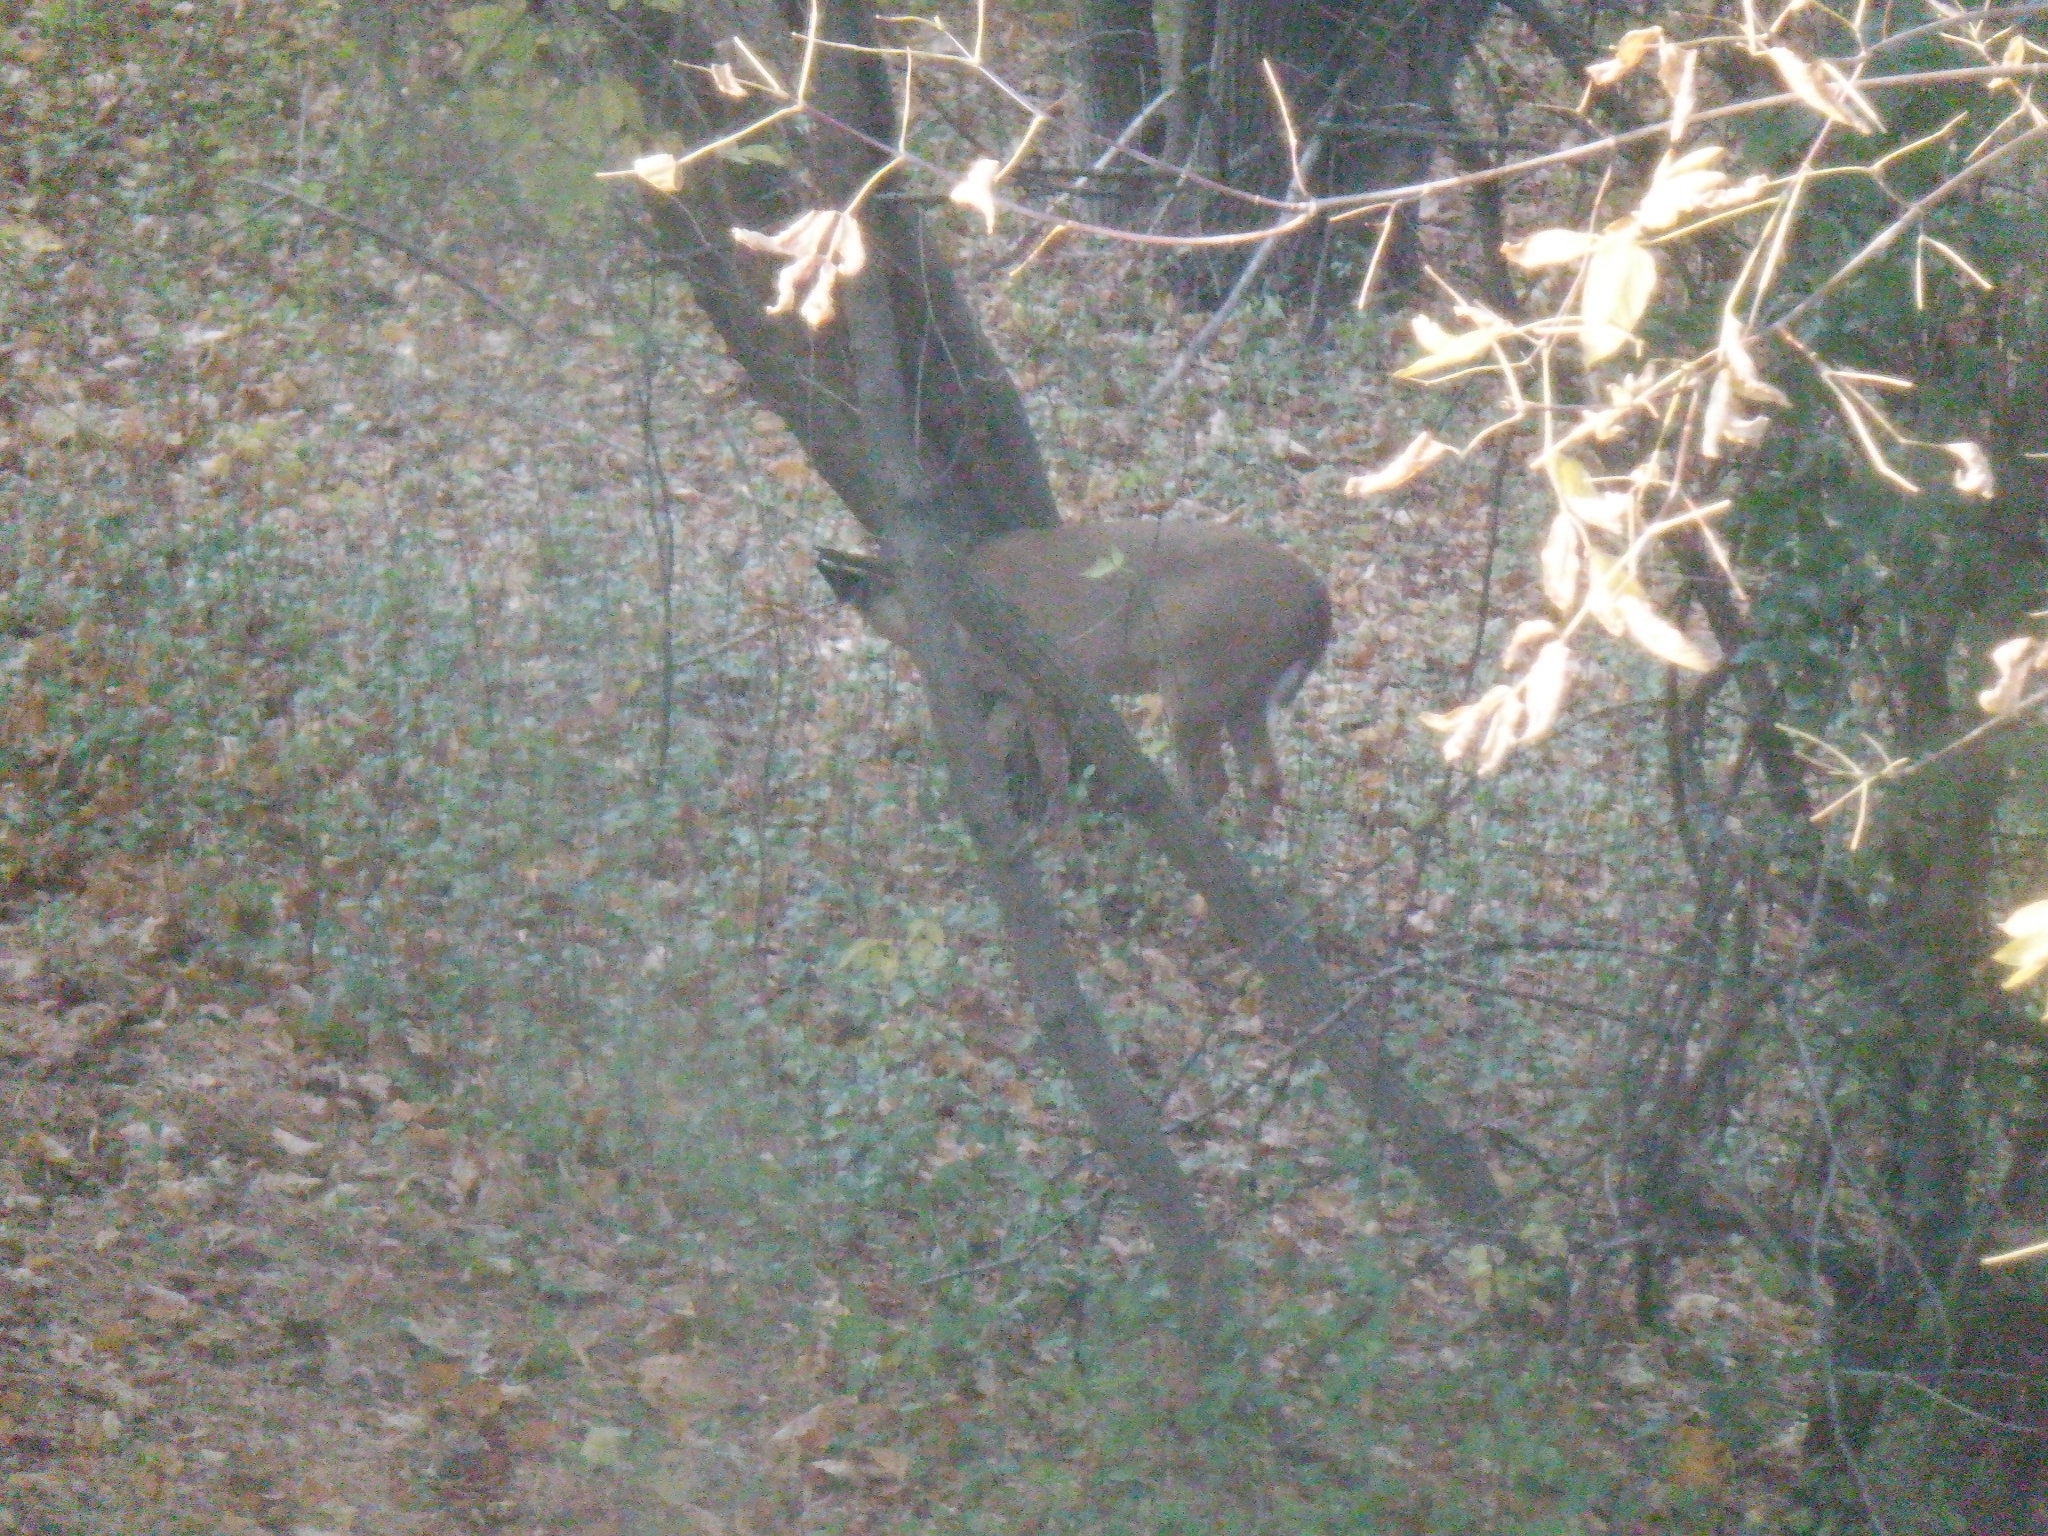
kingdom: Animalia
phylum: Chordata
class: Mammalia
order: Artiodactyla
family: Cervidae
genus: Odocoileus
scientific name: Odocoileus virginianus
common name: White-tailed deer
